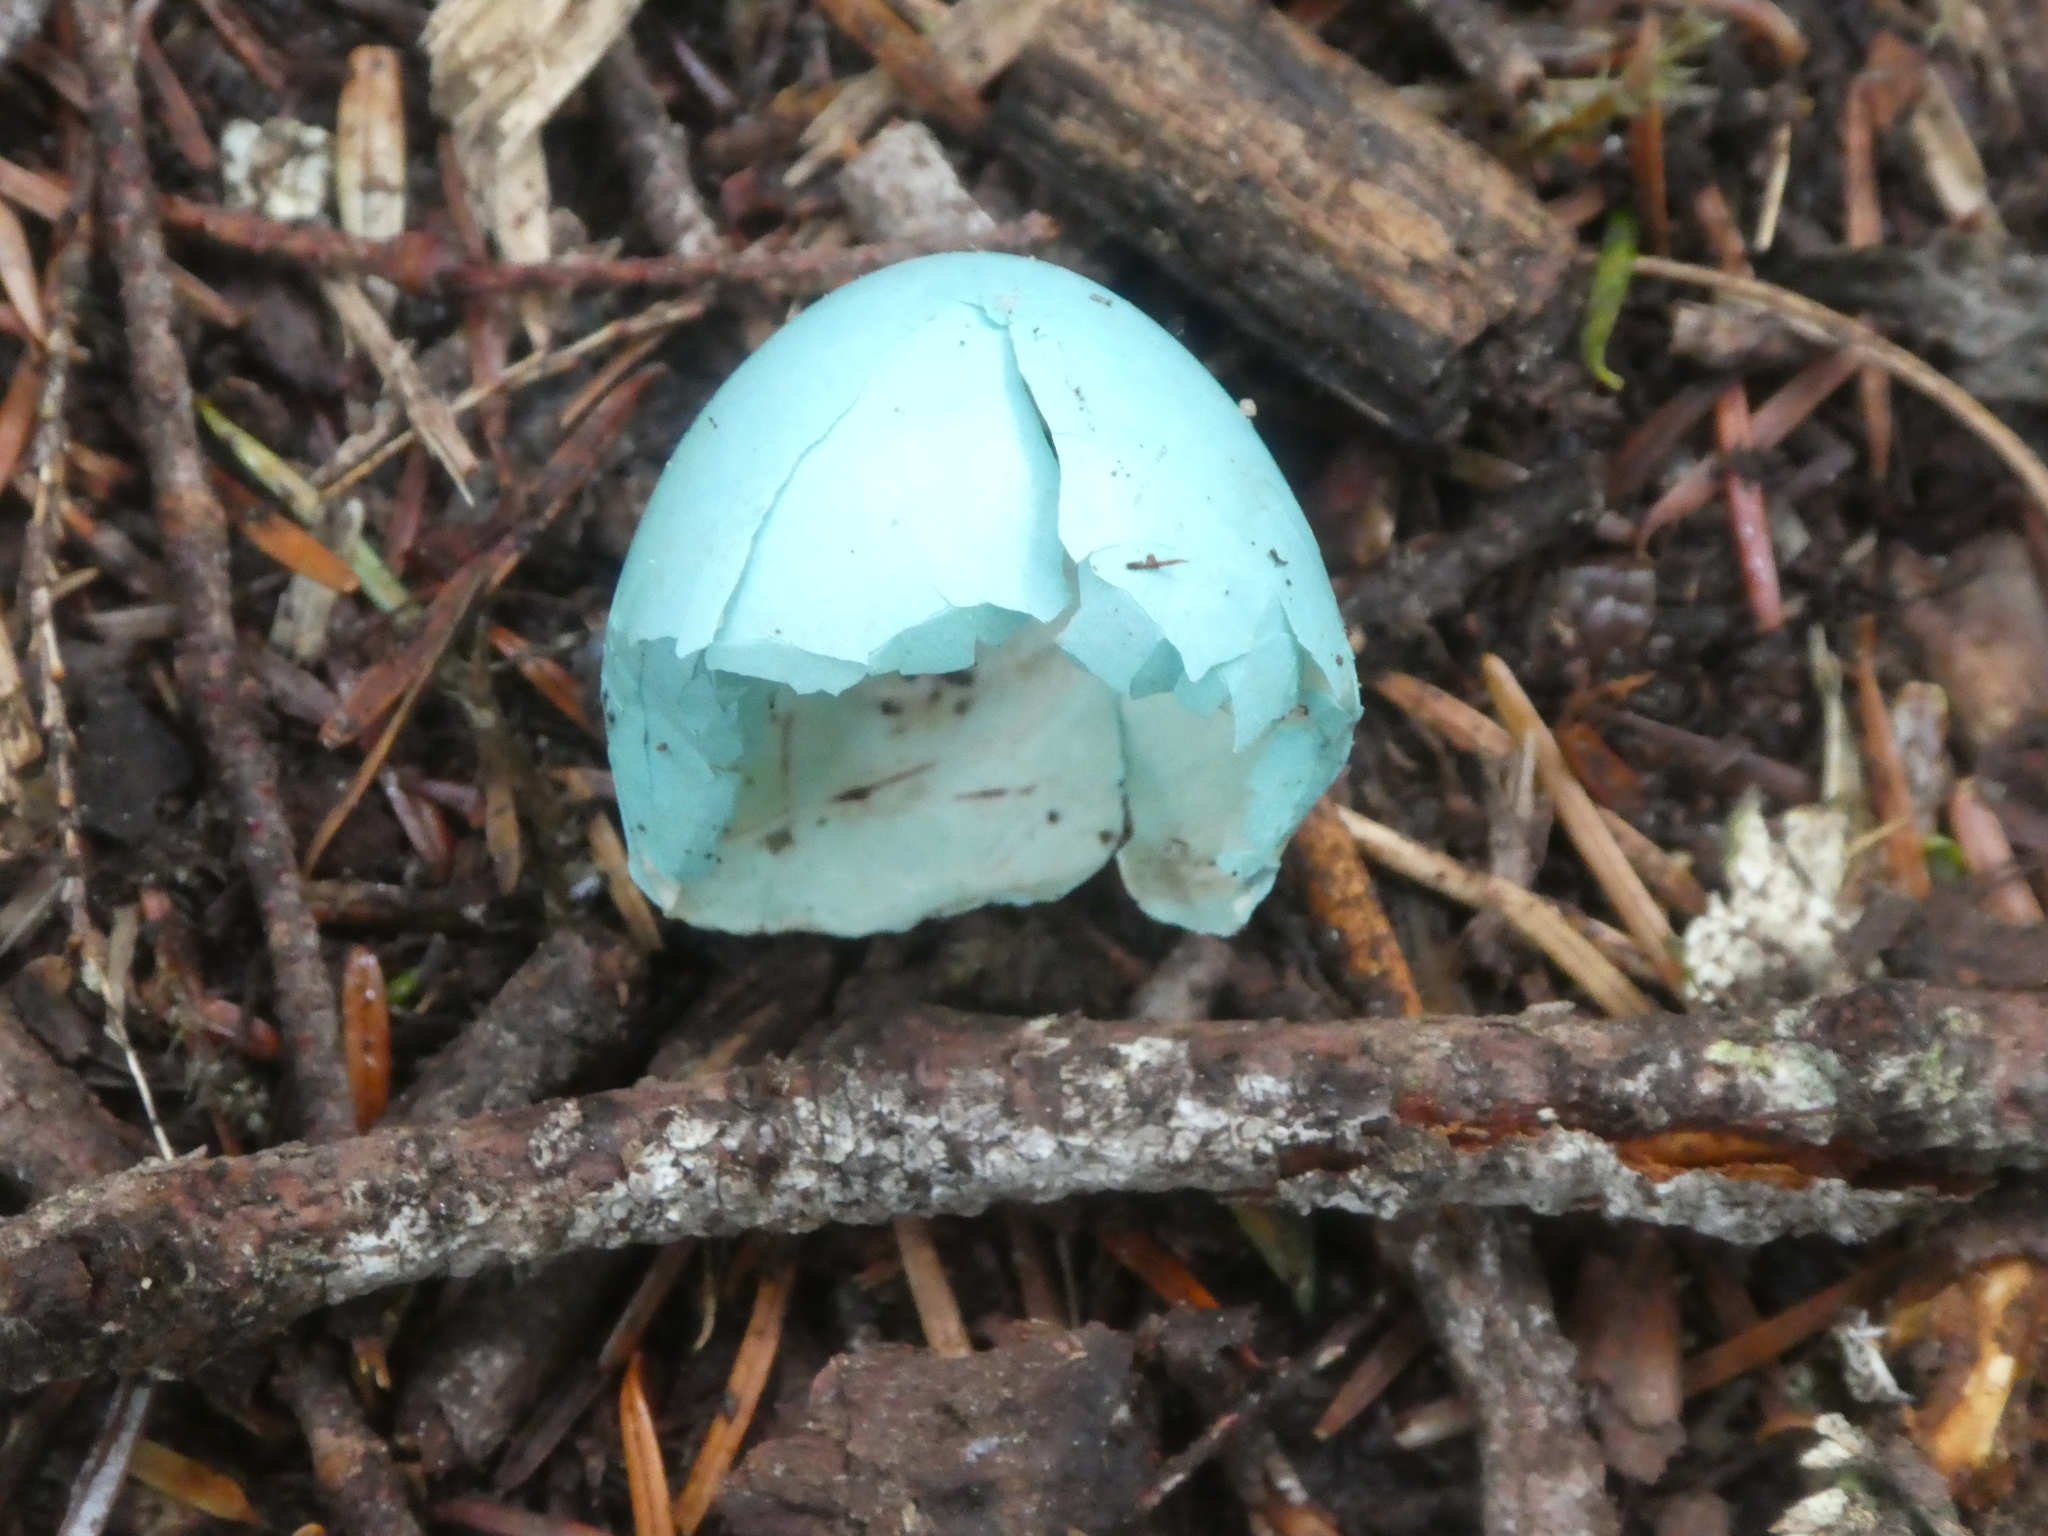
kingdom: Animalia
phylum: Chordata
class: Aves
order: Passeriformes
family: Turdidae
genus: Turdus
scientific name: Turdus migratorius
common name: American robin
